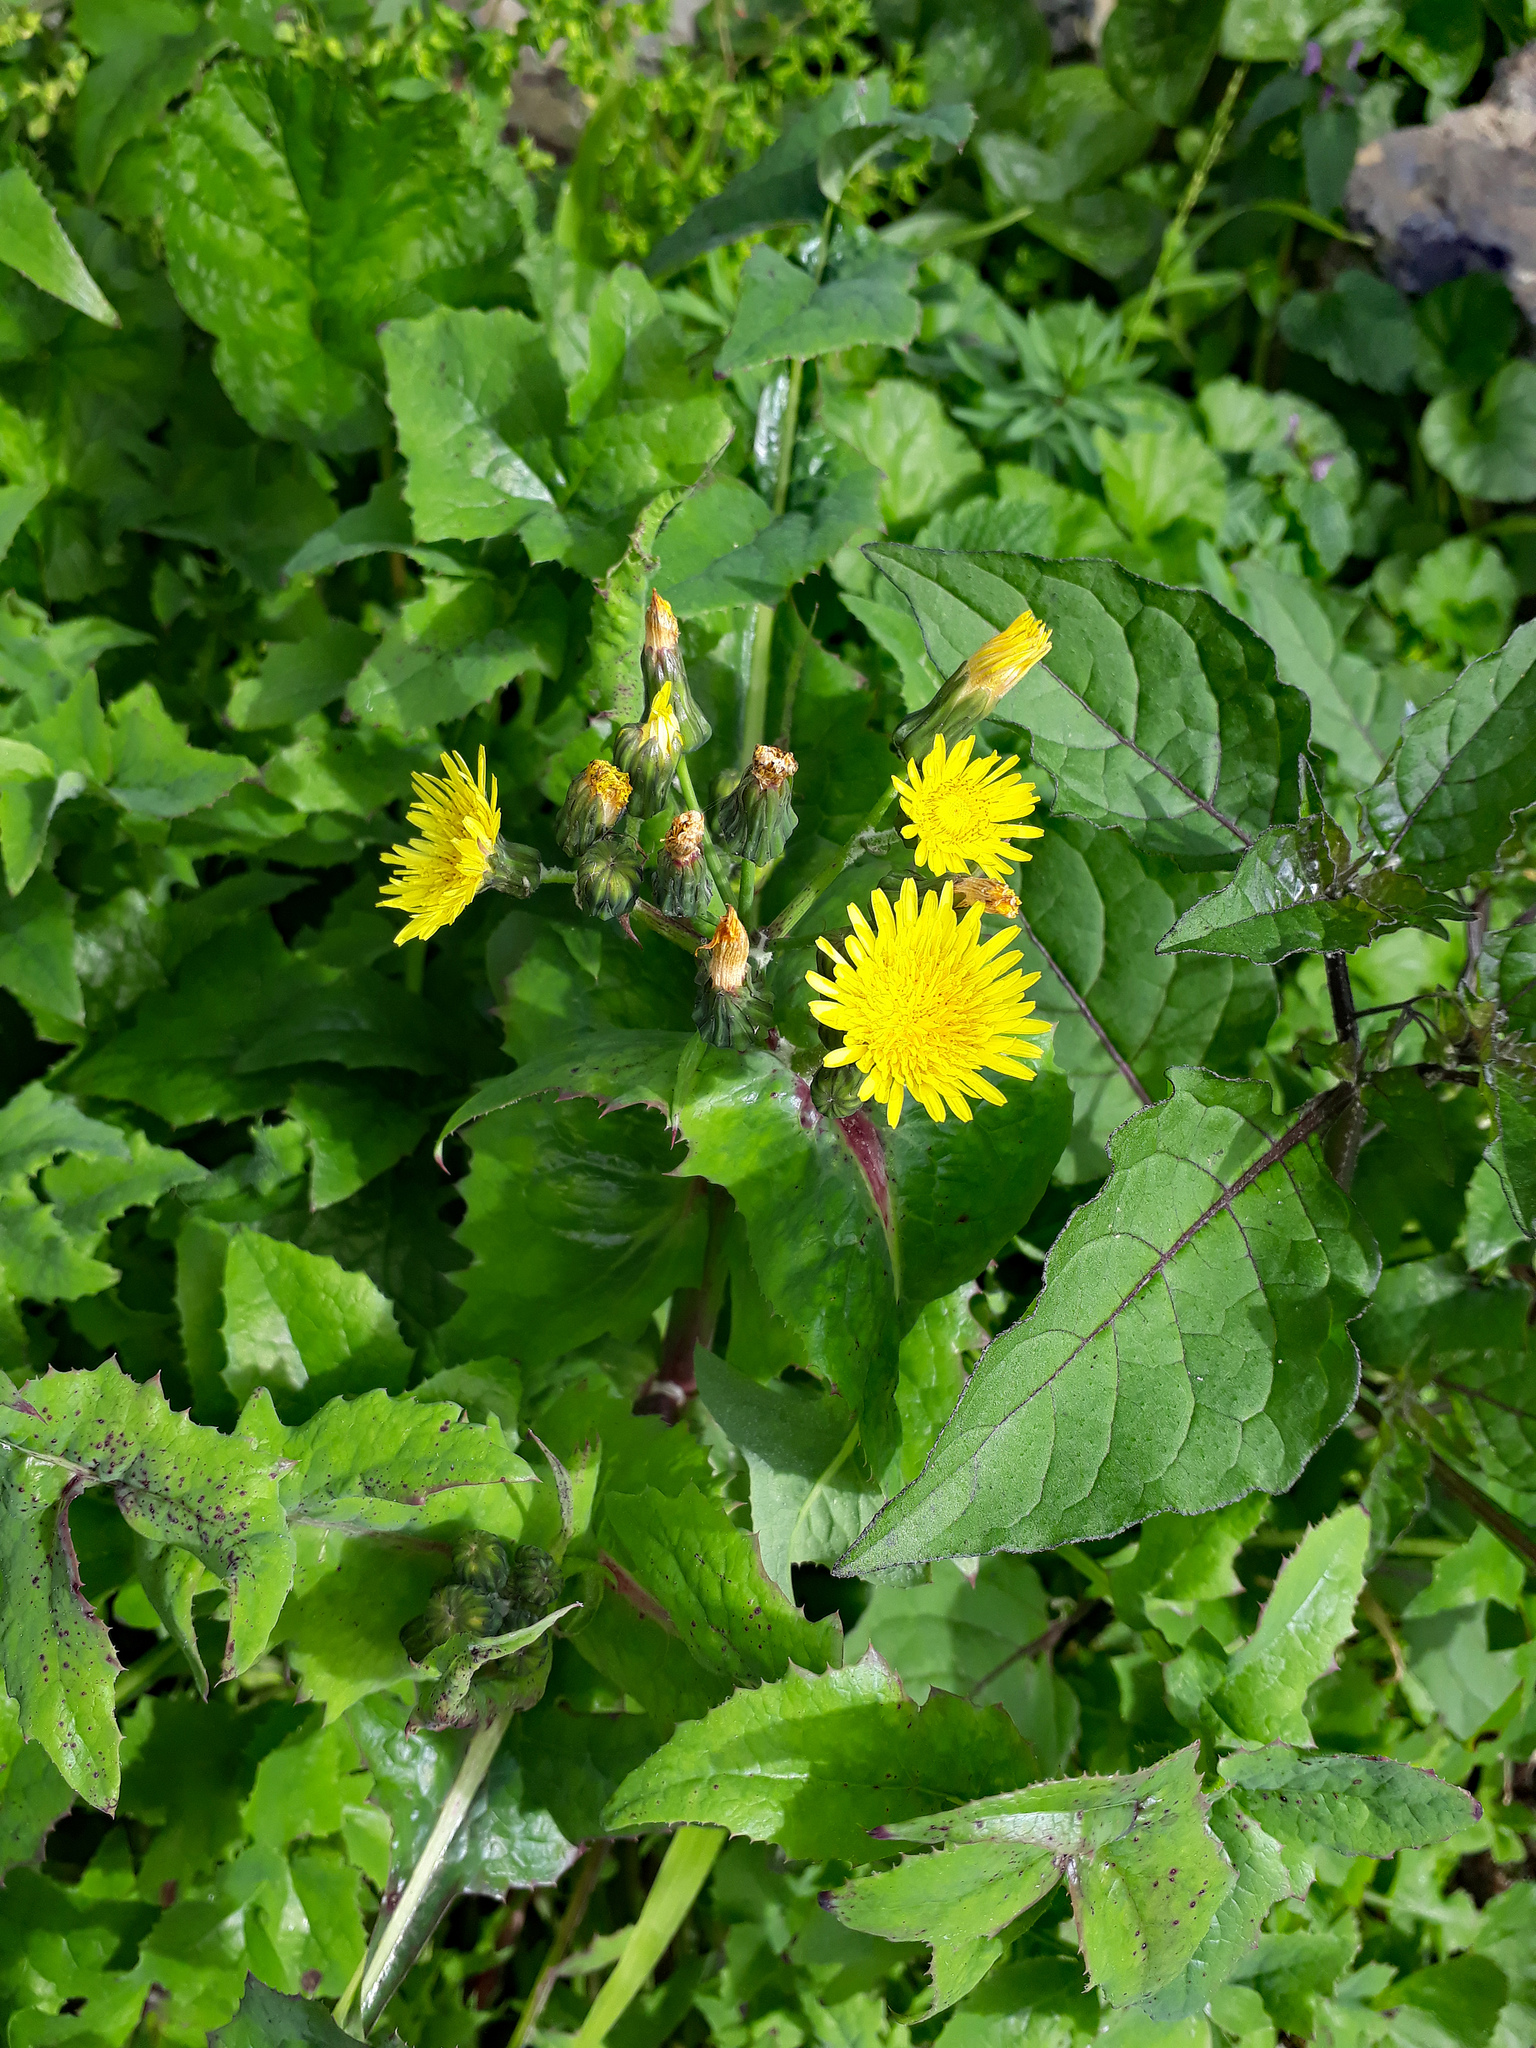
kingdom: Plantae
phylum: Tracheophyta
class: Magnoliopsida
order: Asterales
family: Asteraceae
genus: Sonchus
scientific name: Sonchus oleraceus
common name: Common sowthistle
